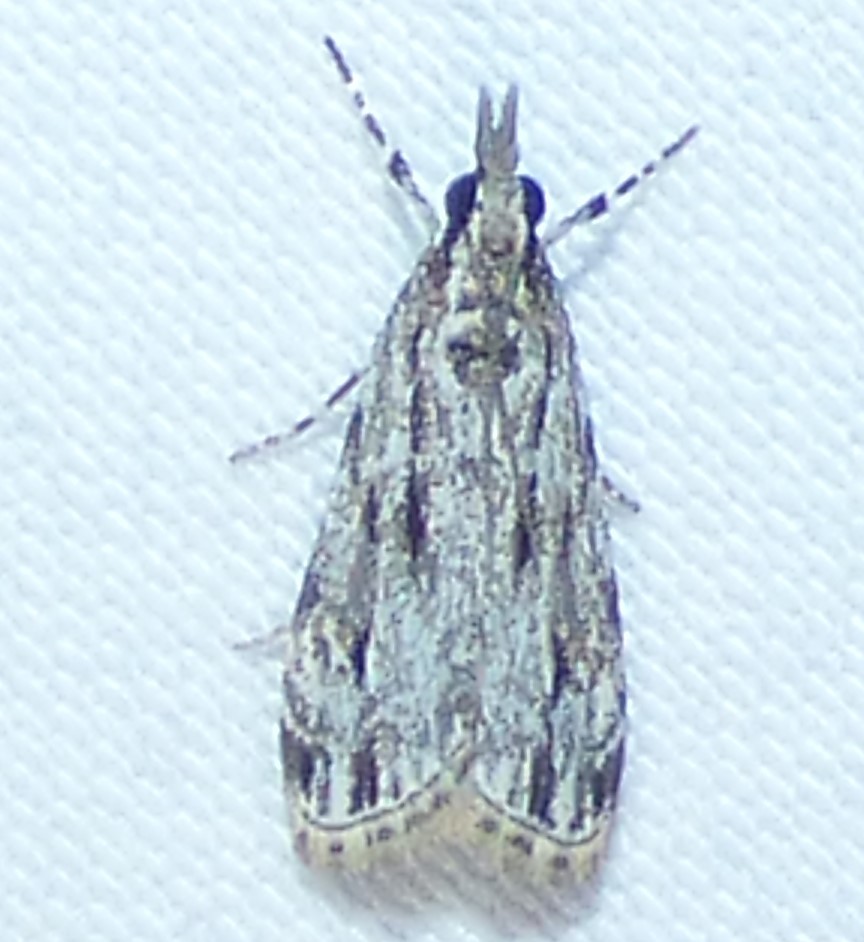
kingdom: Animalia
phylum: Arthropoda
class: Insecta
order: Lepidoptera
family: Crambidae
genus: Eudonia
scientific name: Eudonia strigalis
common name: Striped eudonia moth
